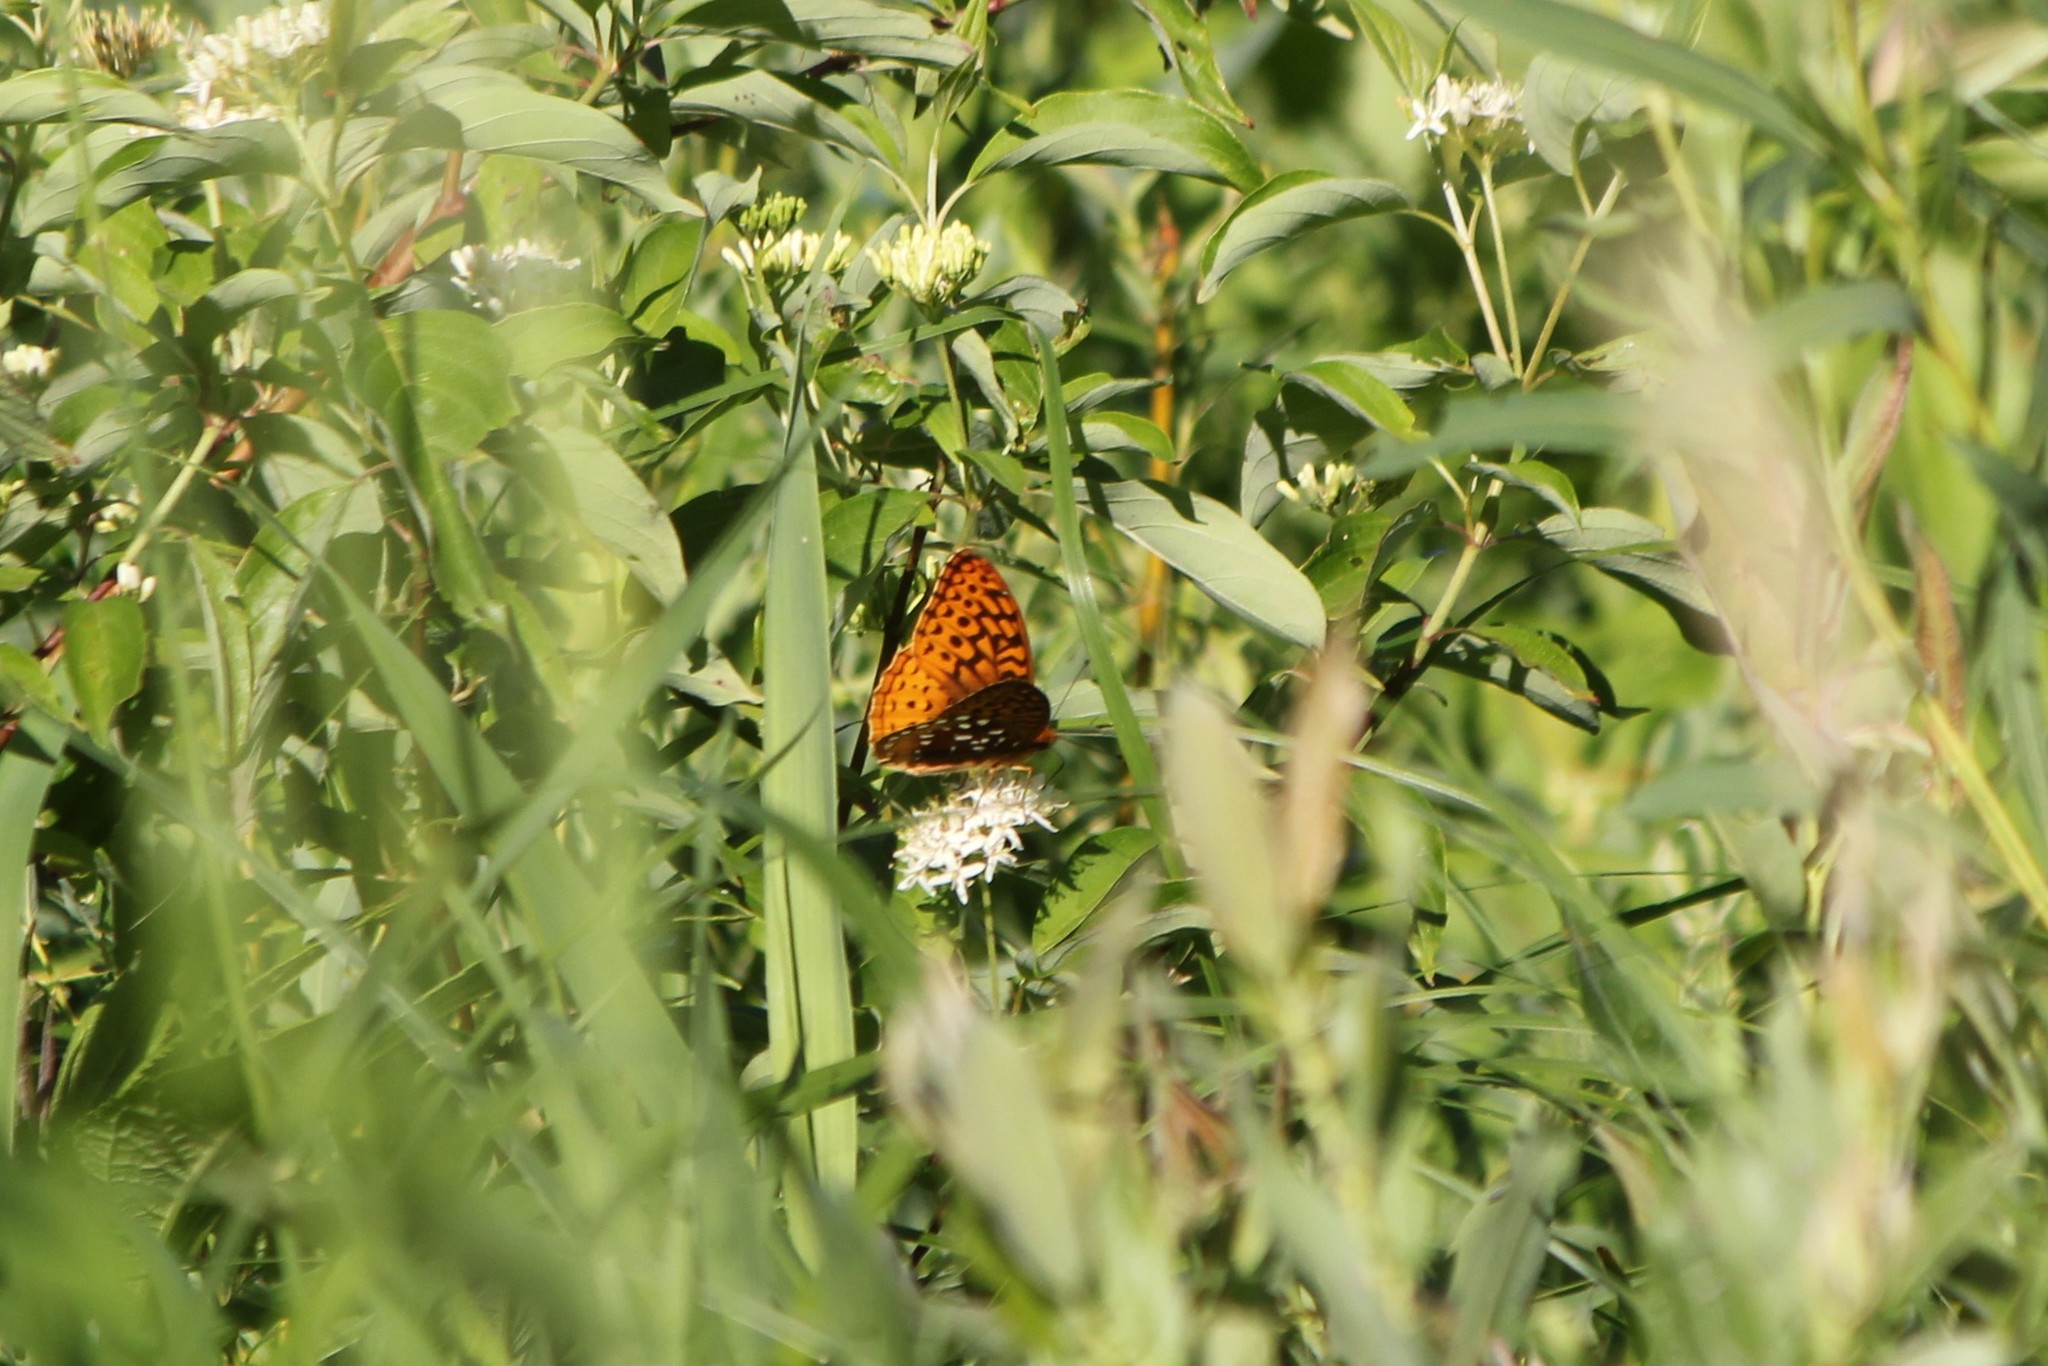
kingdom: Animalia
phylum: Arthropoda
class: Insecta
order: Lepidoptera
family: Nymphalidae
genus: Speyeria
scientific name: Speyeria cybele
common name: Great spangled fritillary
